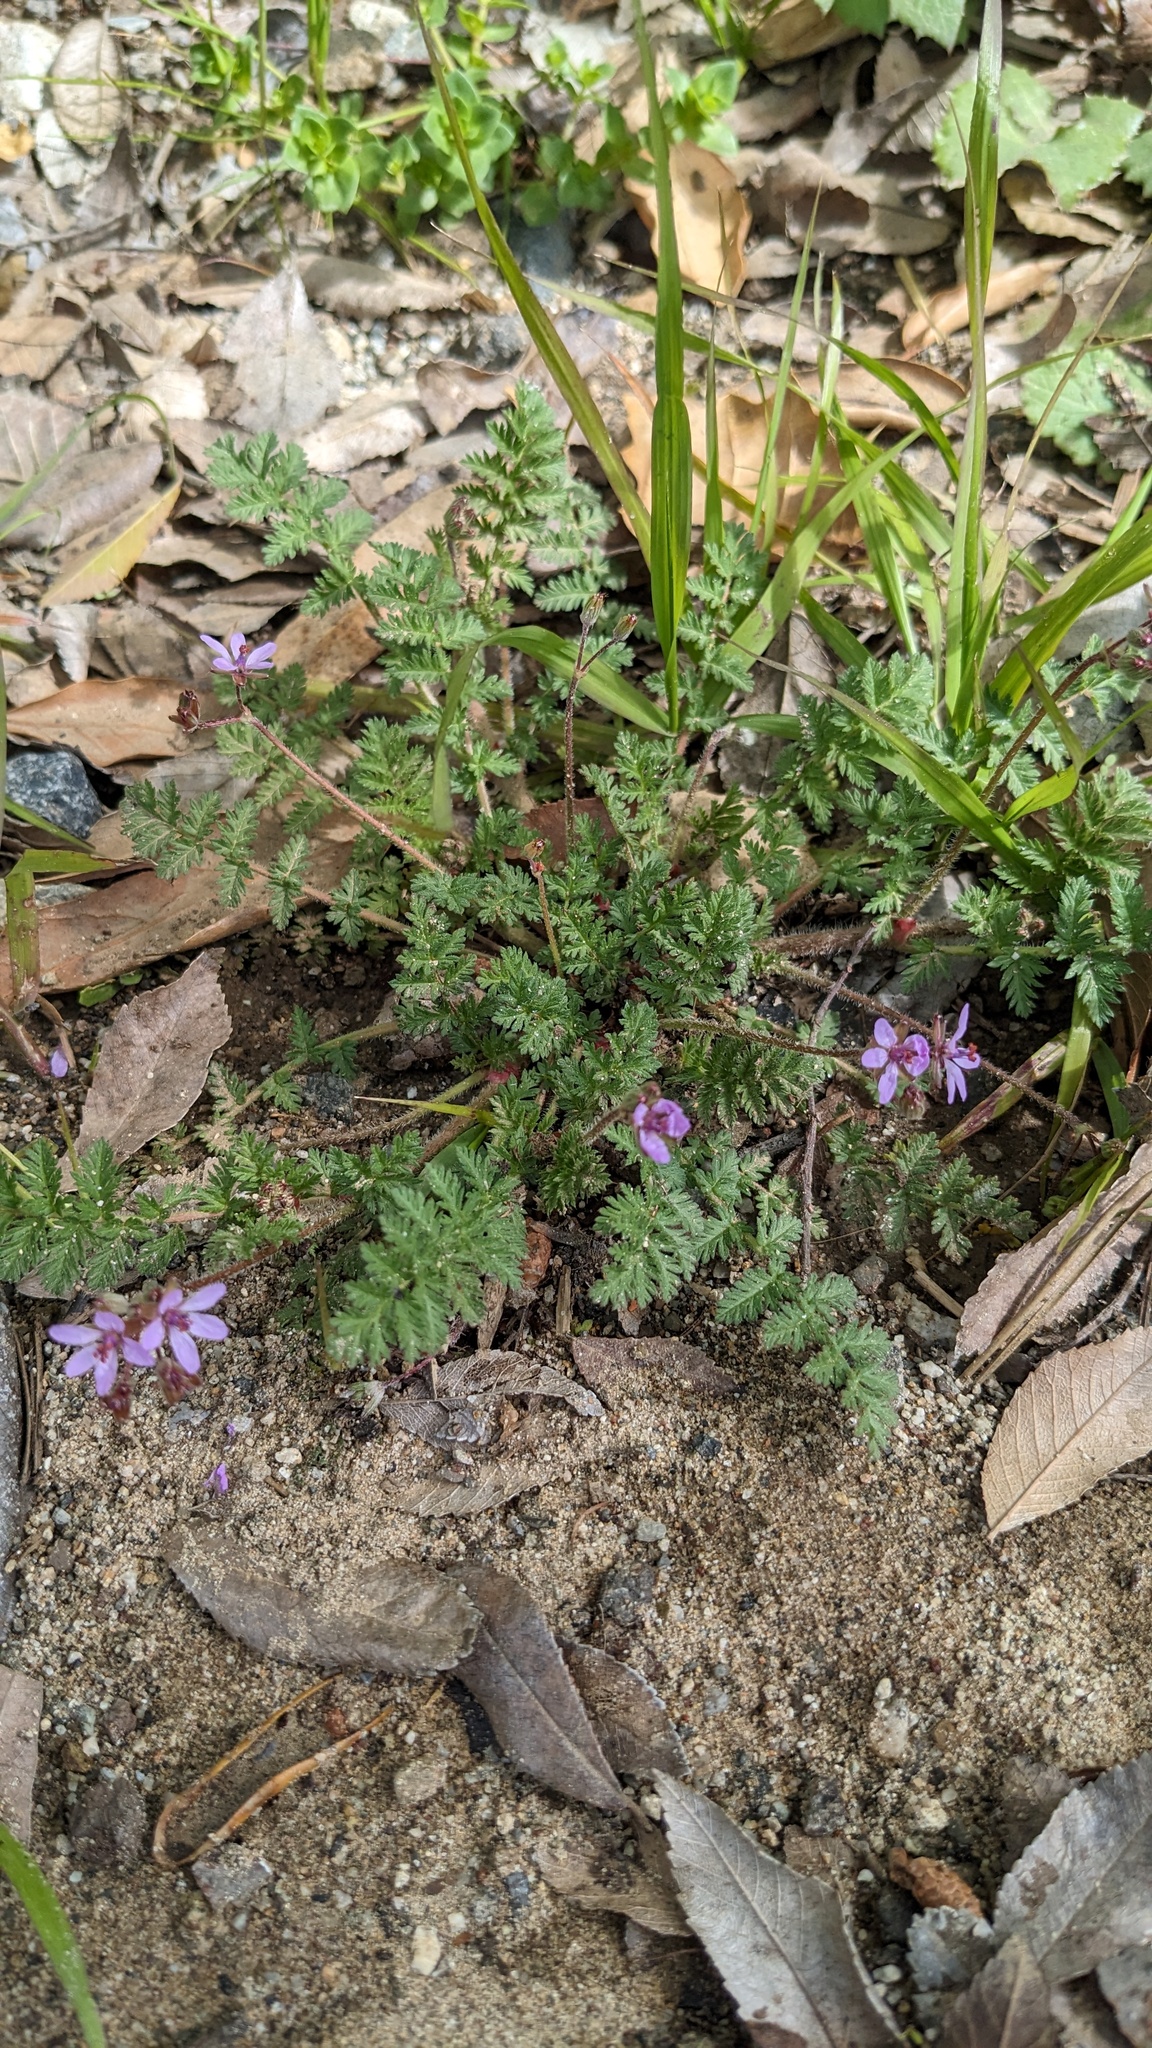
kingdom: Plantae
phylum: Tracheophyta
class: Magnoliopsida
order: Geraniales
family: Geraniaceae
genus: Erodium
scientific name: Erodium cicutarium
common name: Common stork's-bill
